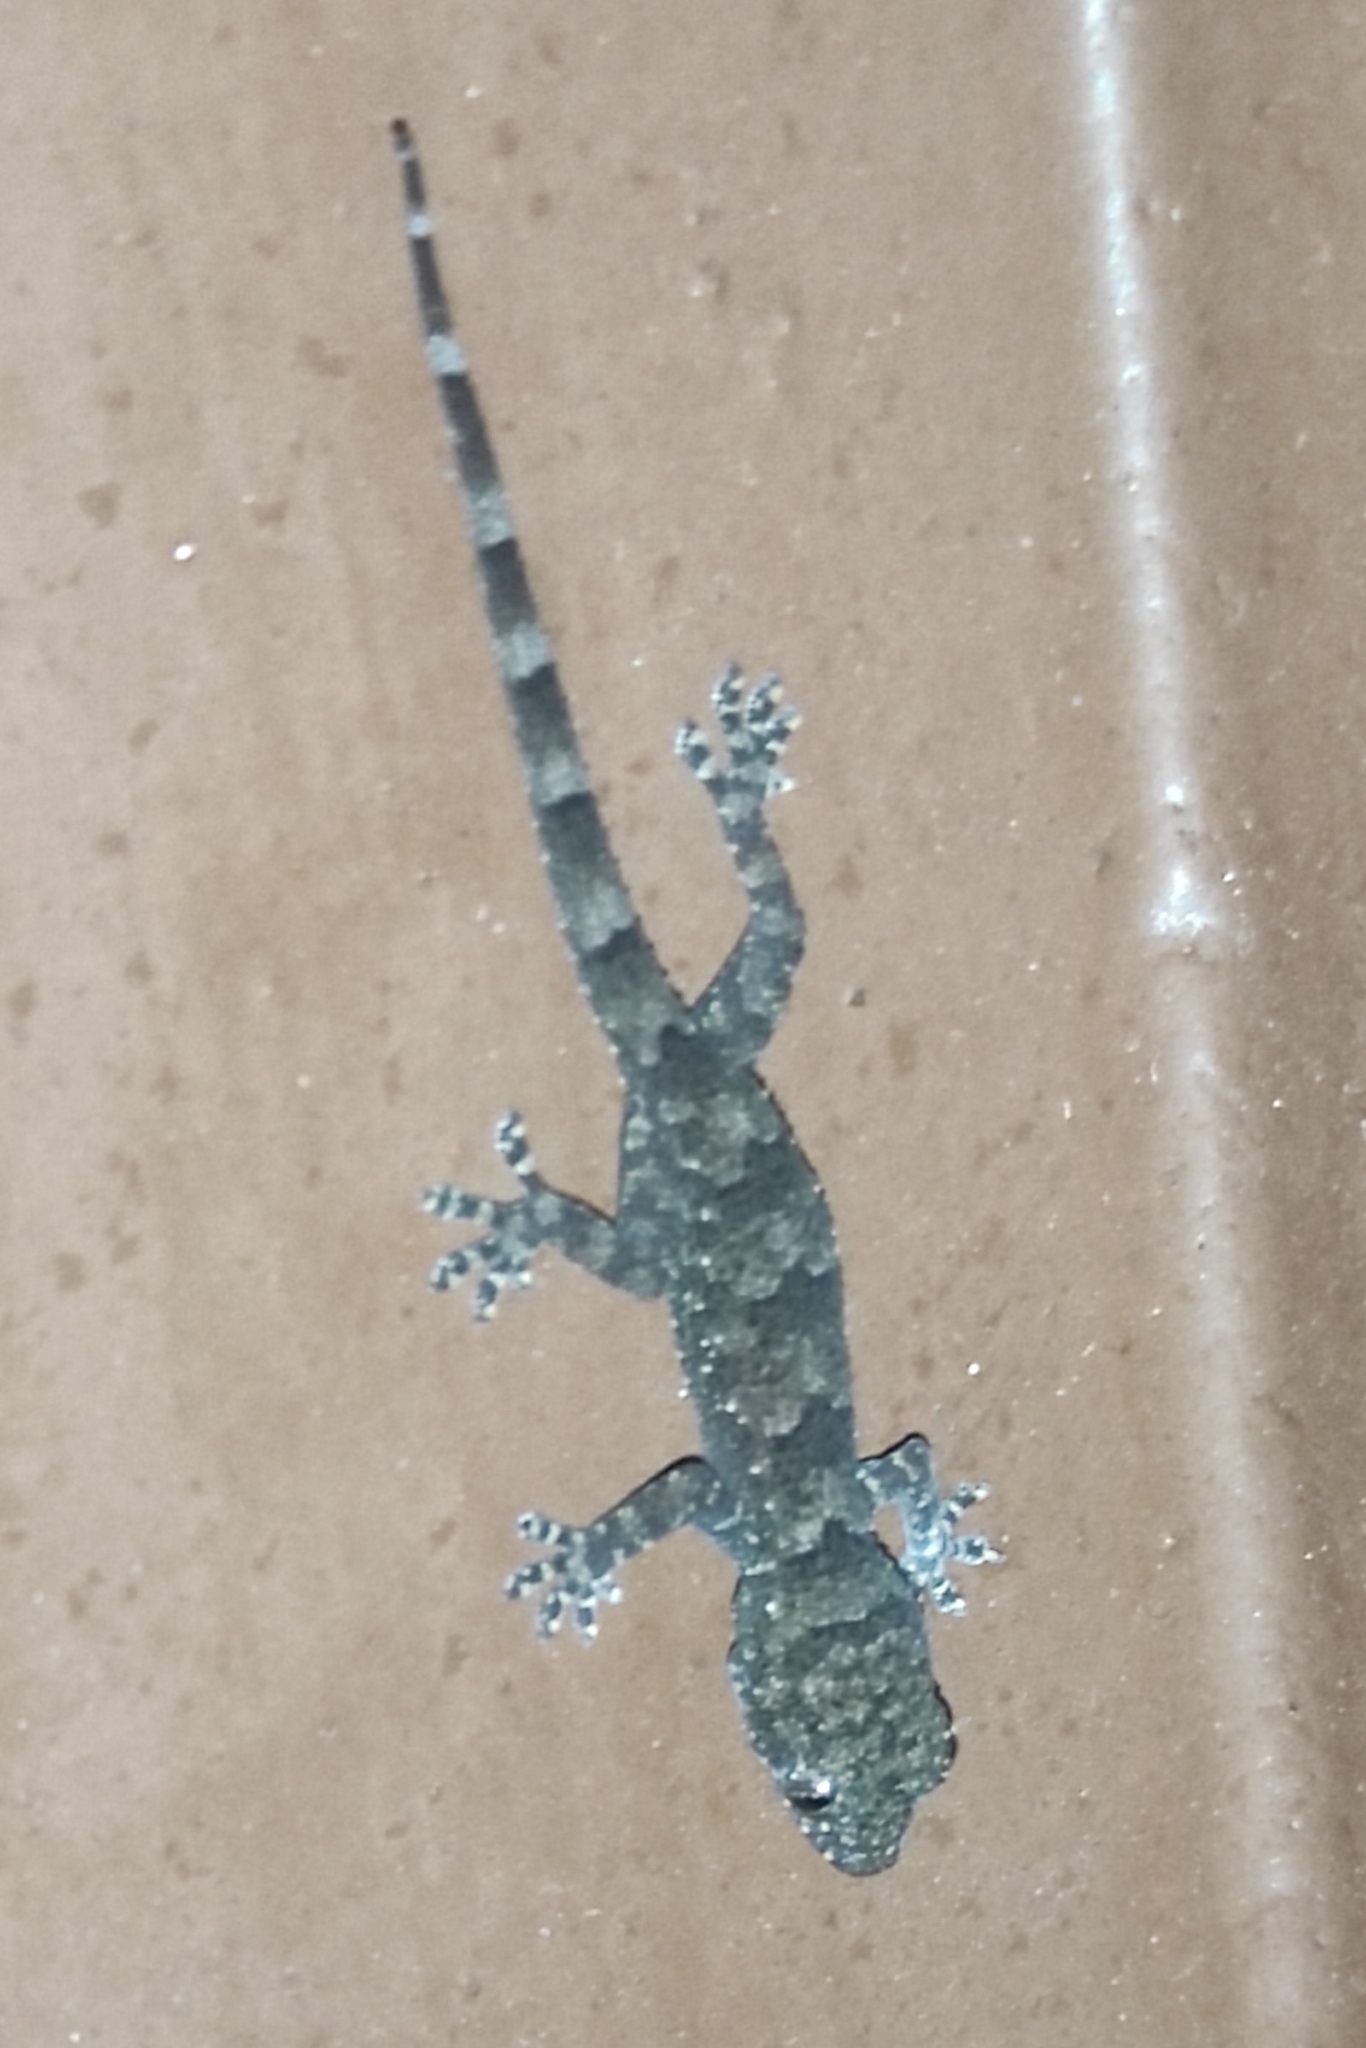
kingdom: Animalia
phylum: Chordata
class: Squamata
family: Gekkonidae
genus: Hemidactylus
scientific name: Hemidactylus mabouia
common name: House gecko
